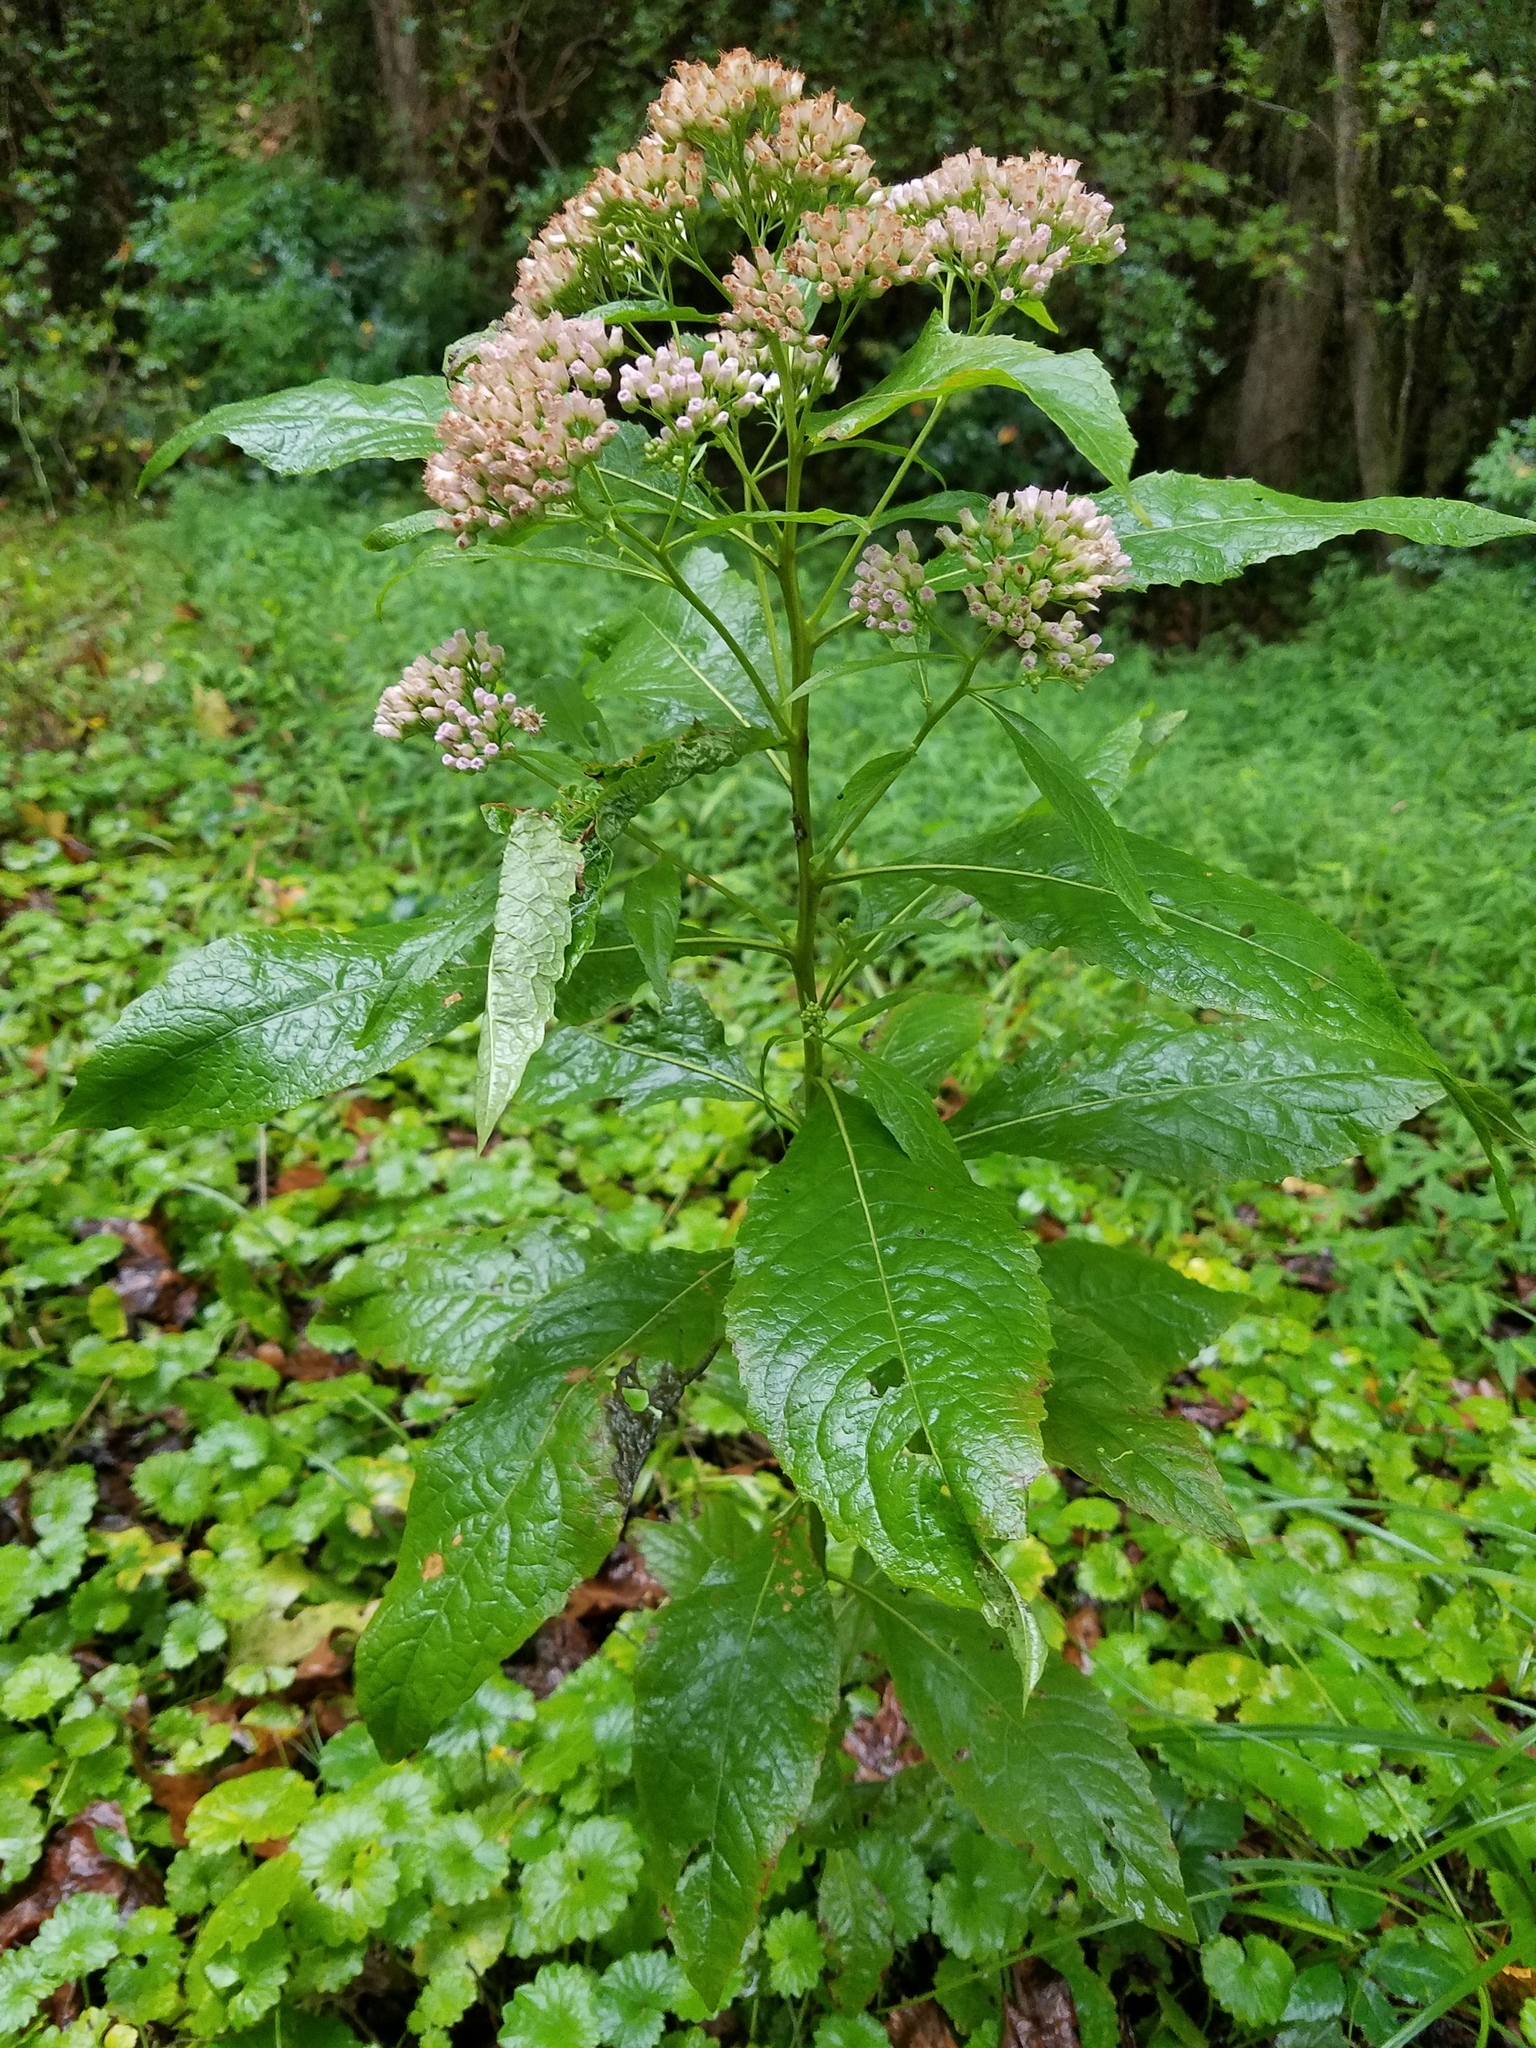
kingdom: Plantae
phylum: Tracheophyta
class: Magnoliopsida
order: Asterales
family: Asteraceae
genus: Pluchea
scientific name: Pluchea camphorata
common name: Camphor pluchea
